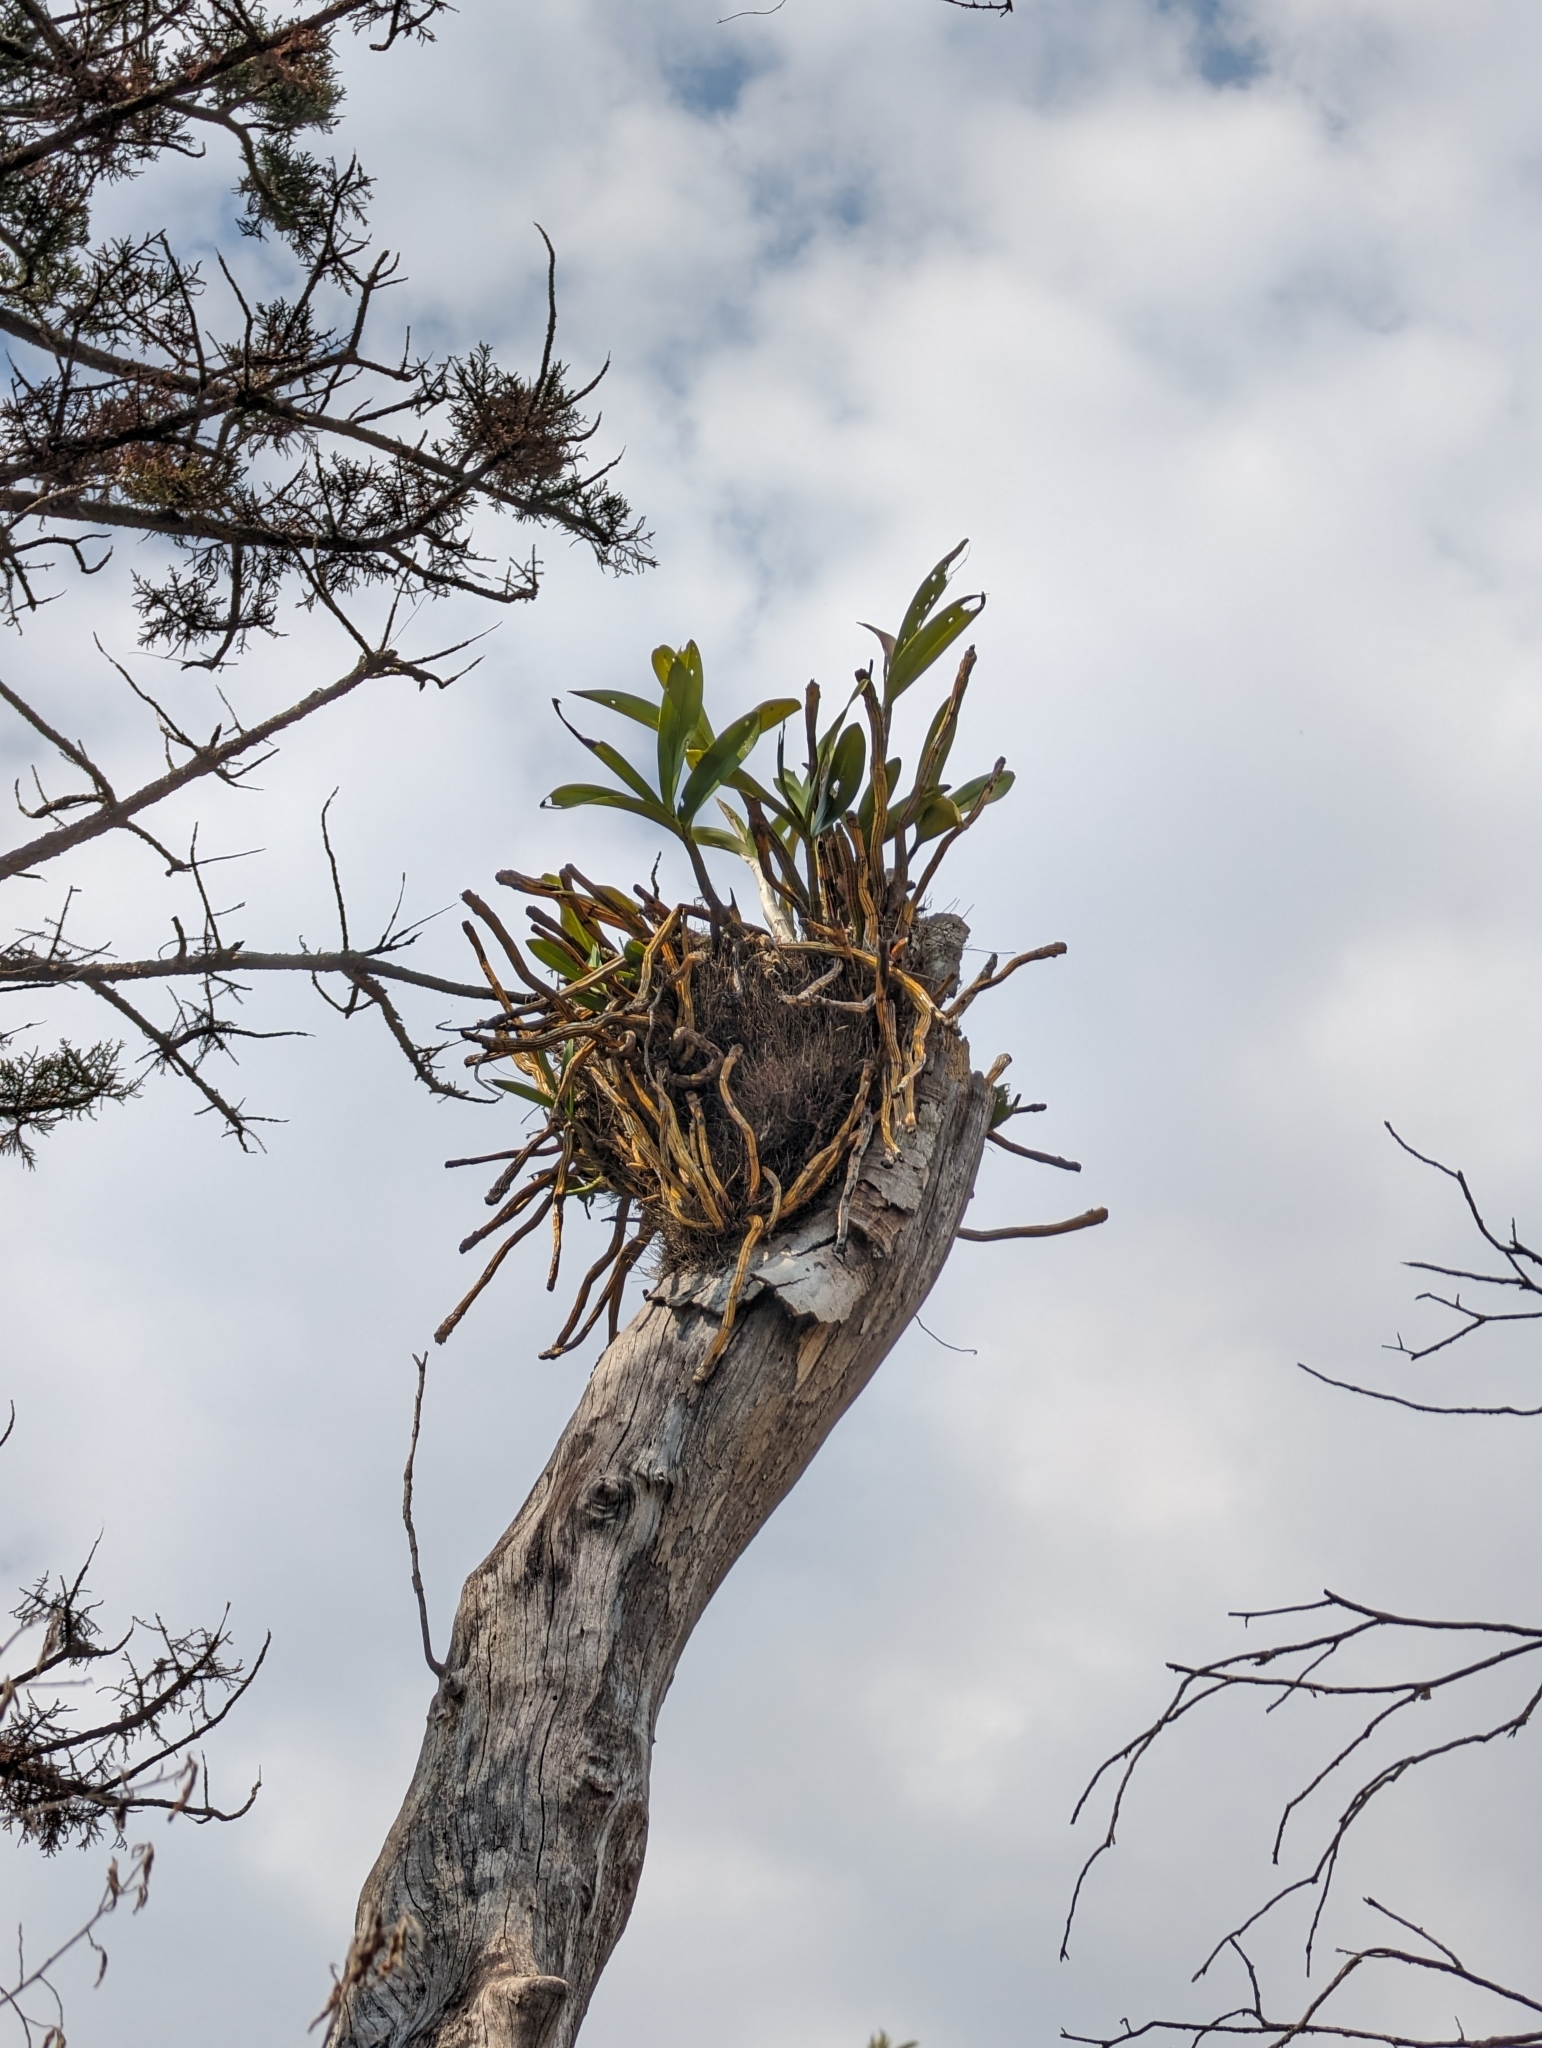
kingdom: Plantae
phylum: Tracheophyta
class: Liliopsida
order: Asparagales
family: Orchidaceae
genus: Dendrobium
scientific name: Dendrobium speciosum
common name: Rock-lily
